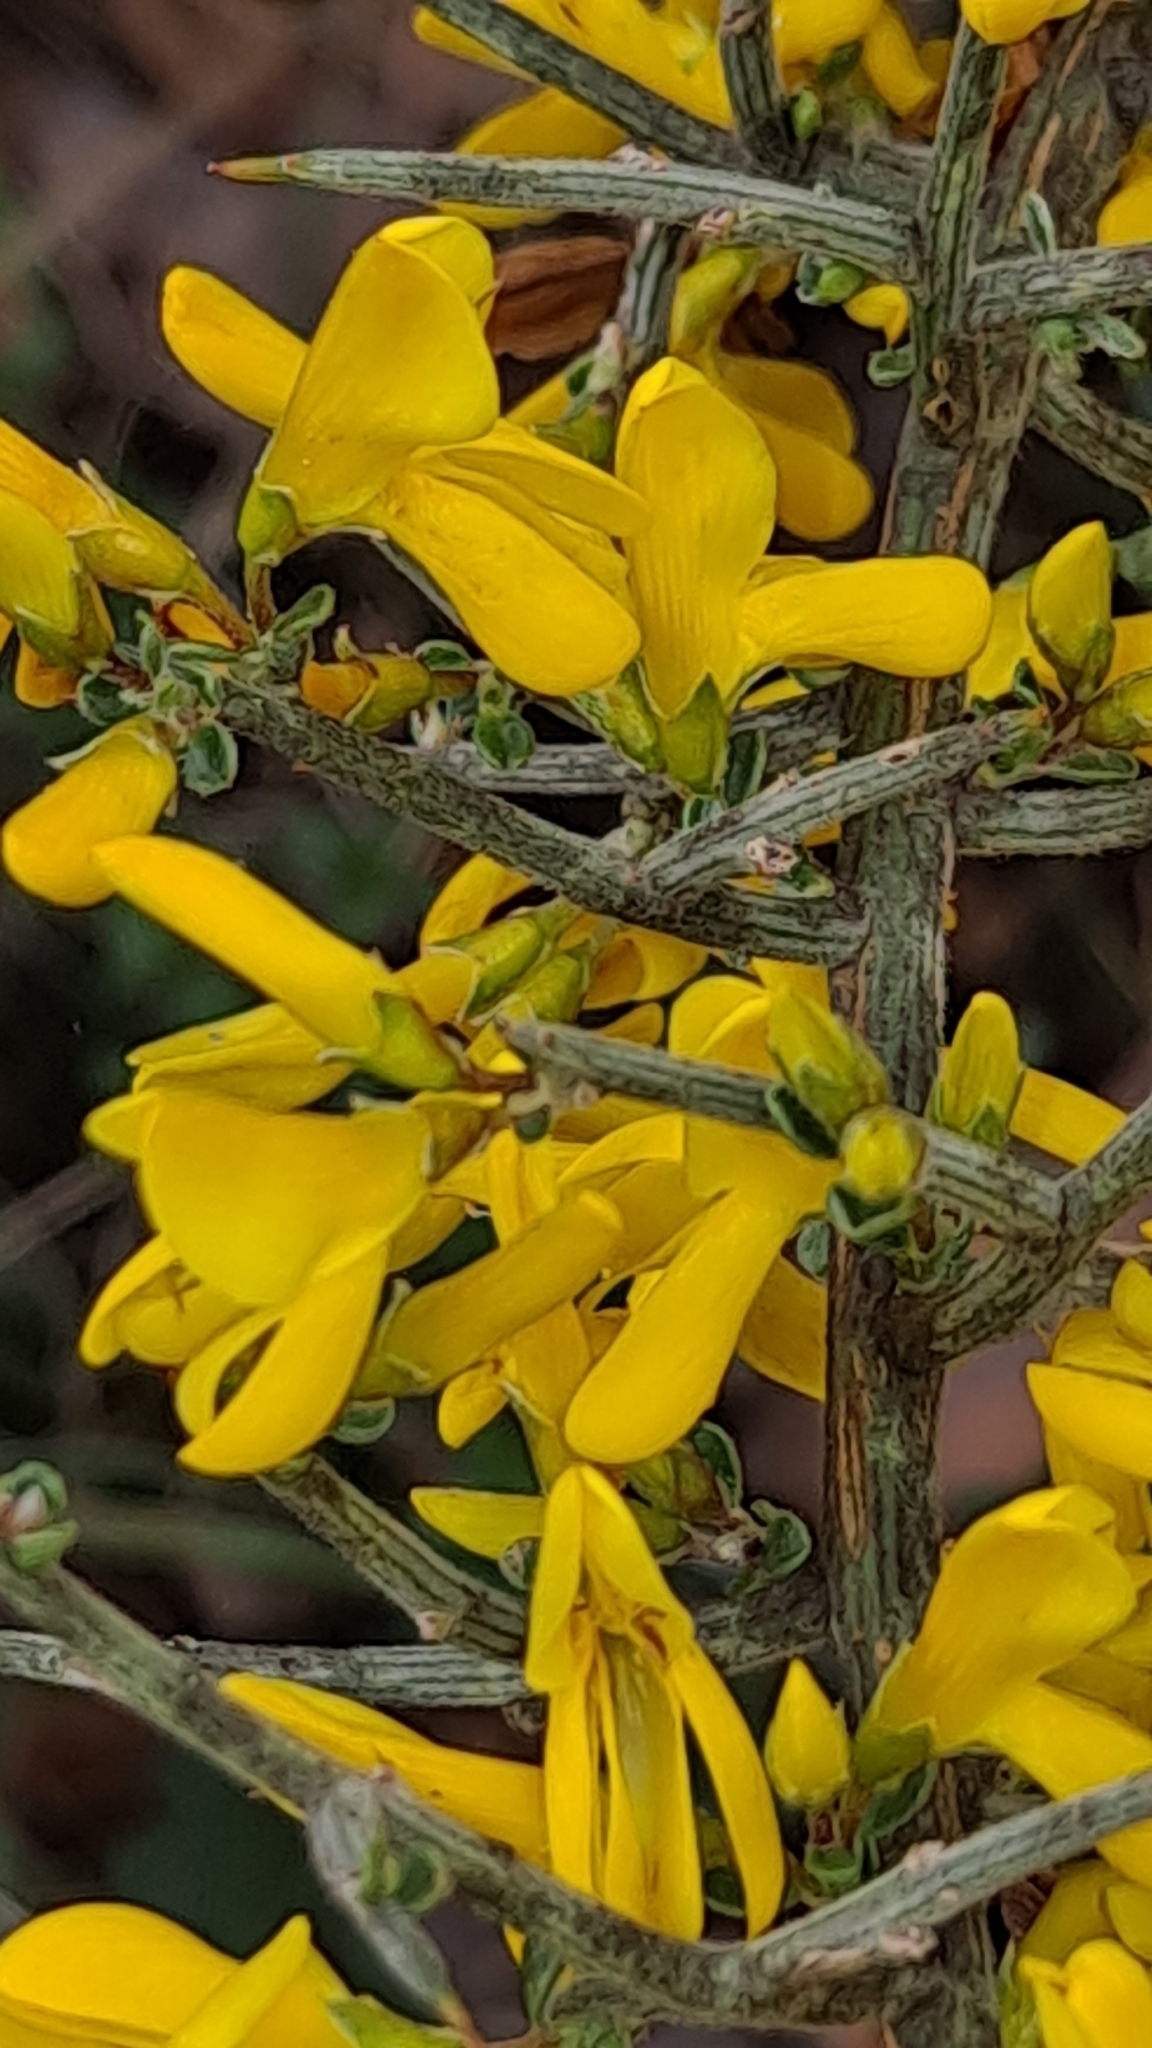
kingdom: Plantae
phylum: Tracheophyta
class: Magnoliopsida
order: Fabales
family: Fabaceae
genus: Genista
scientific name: Genista scorpius
